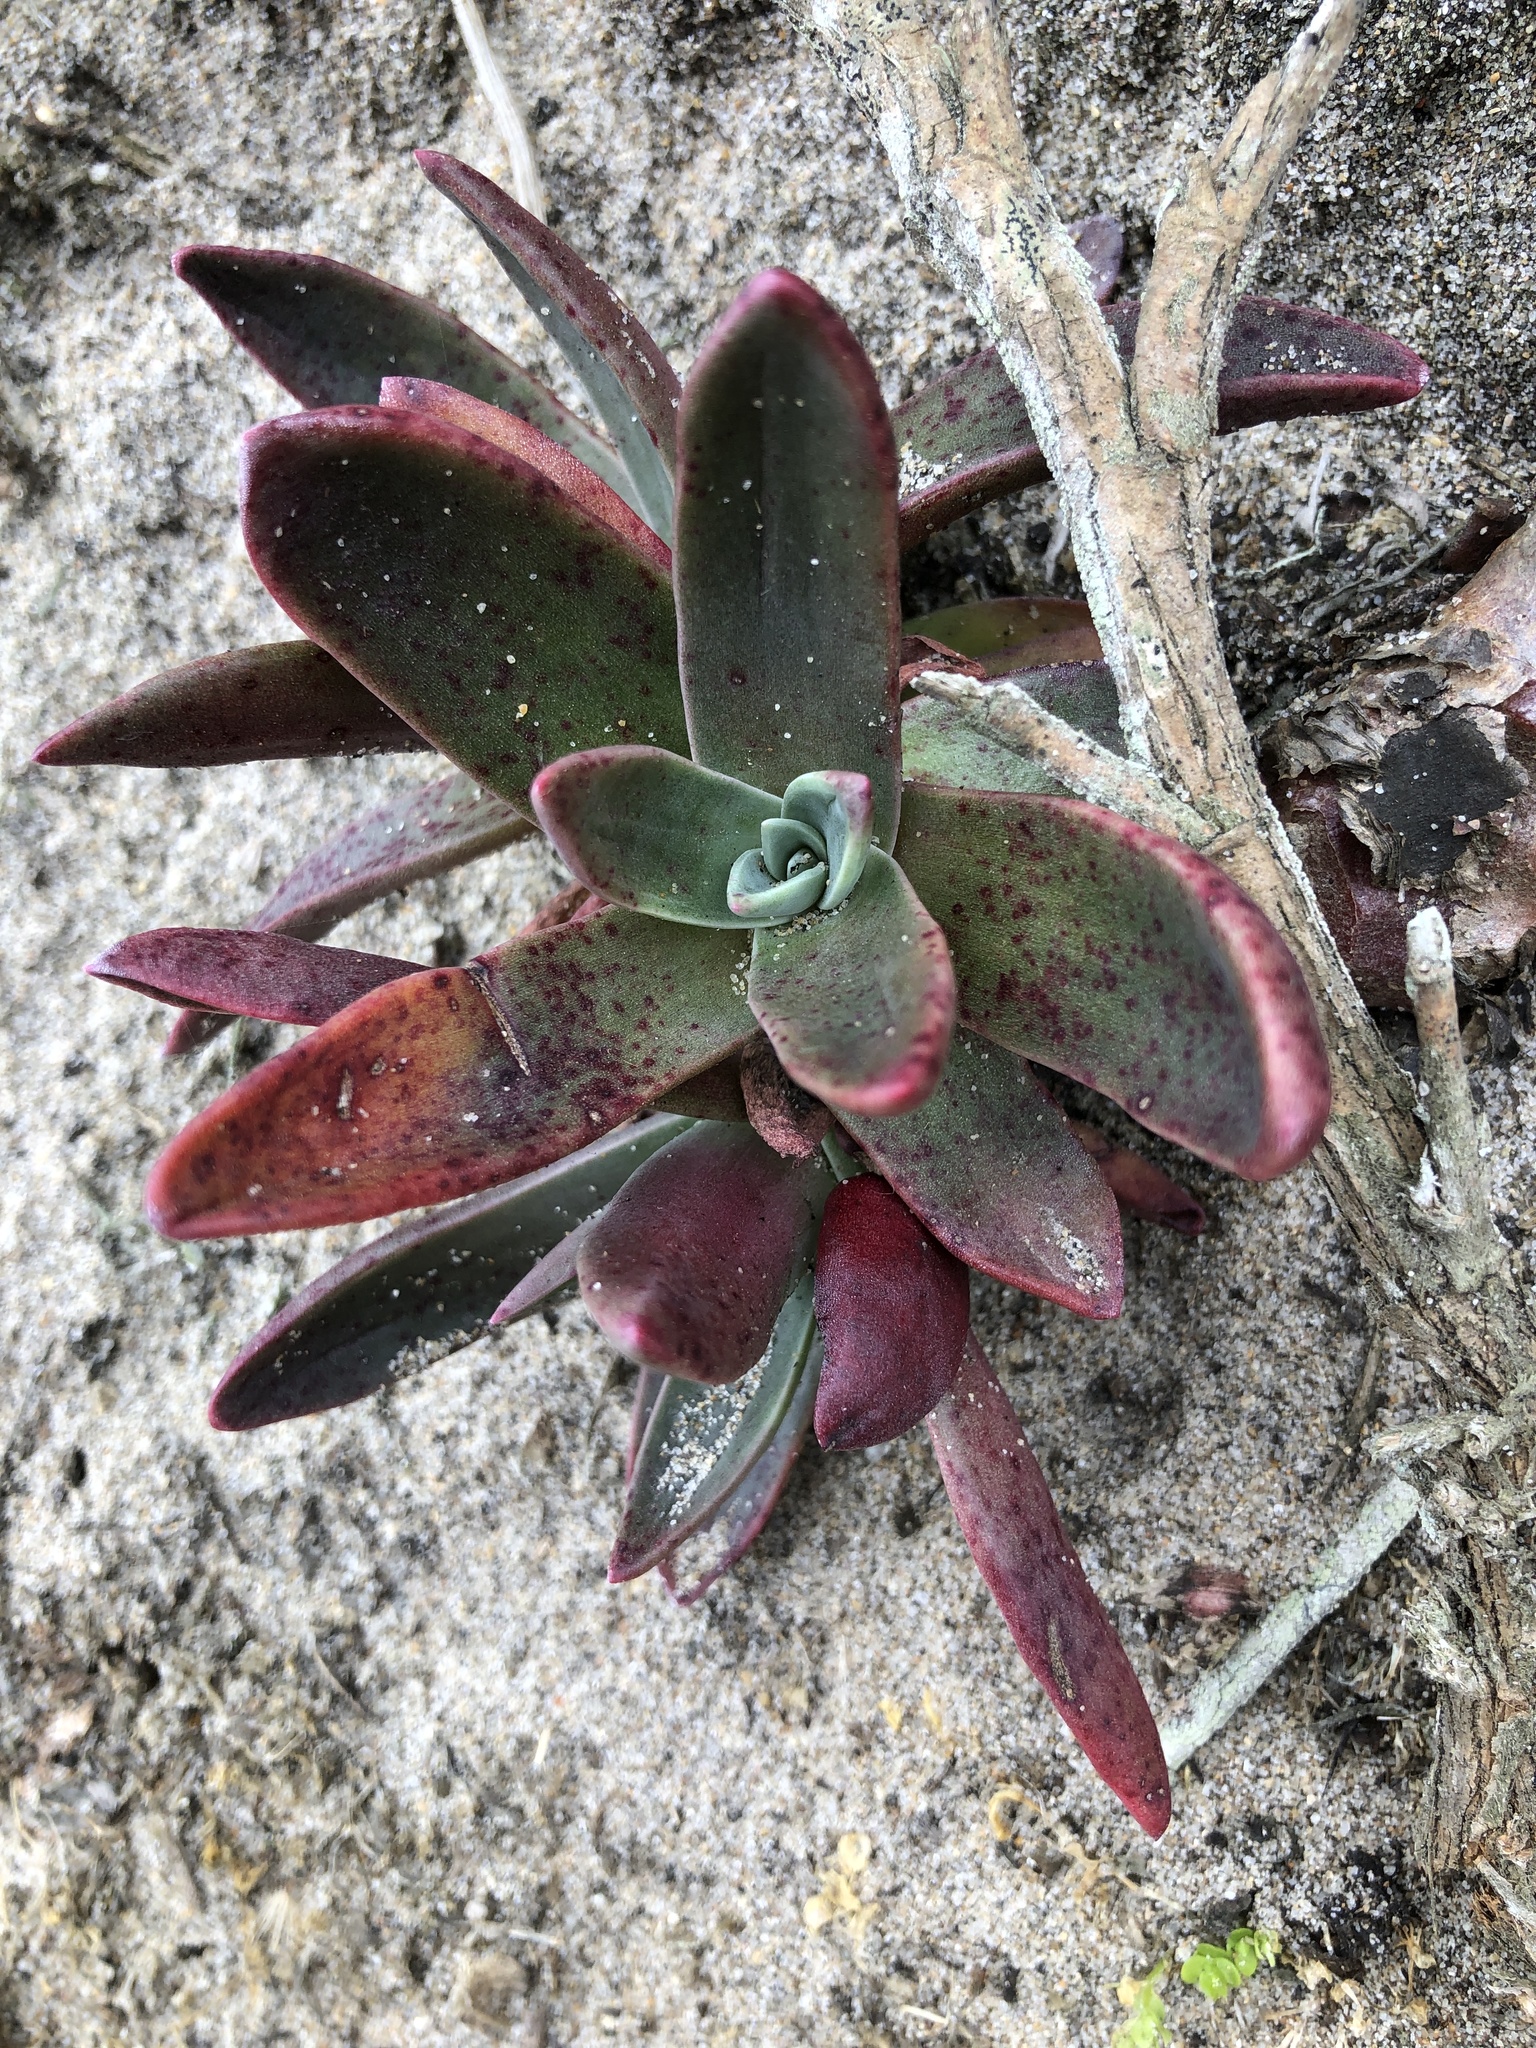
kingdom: Plantae
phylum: Tracheophyta
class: Magnoliopsida
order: Saxifragales
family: Crassulaceae
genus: Dudleya
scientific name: Dudleya caespitosa
